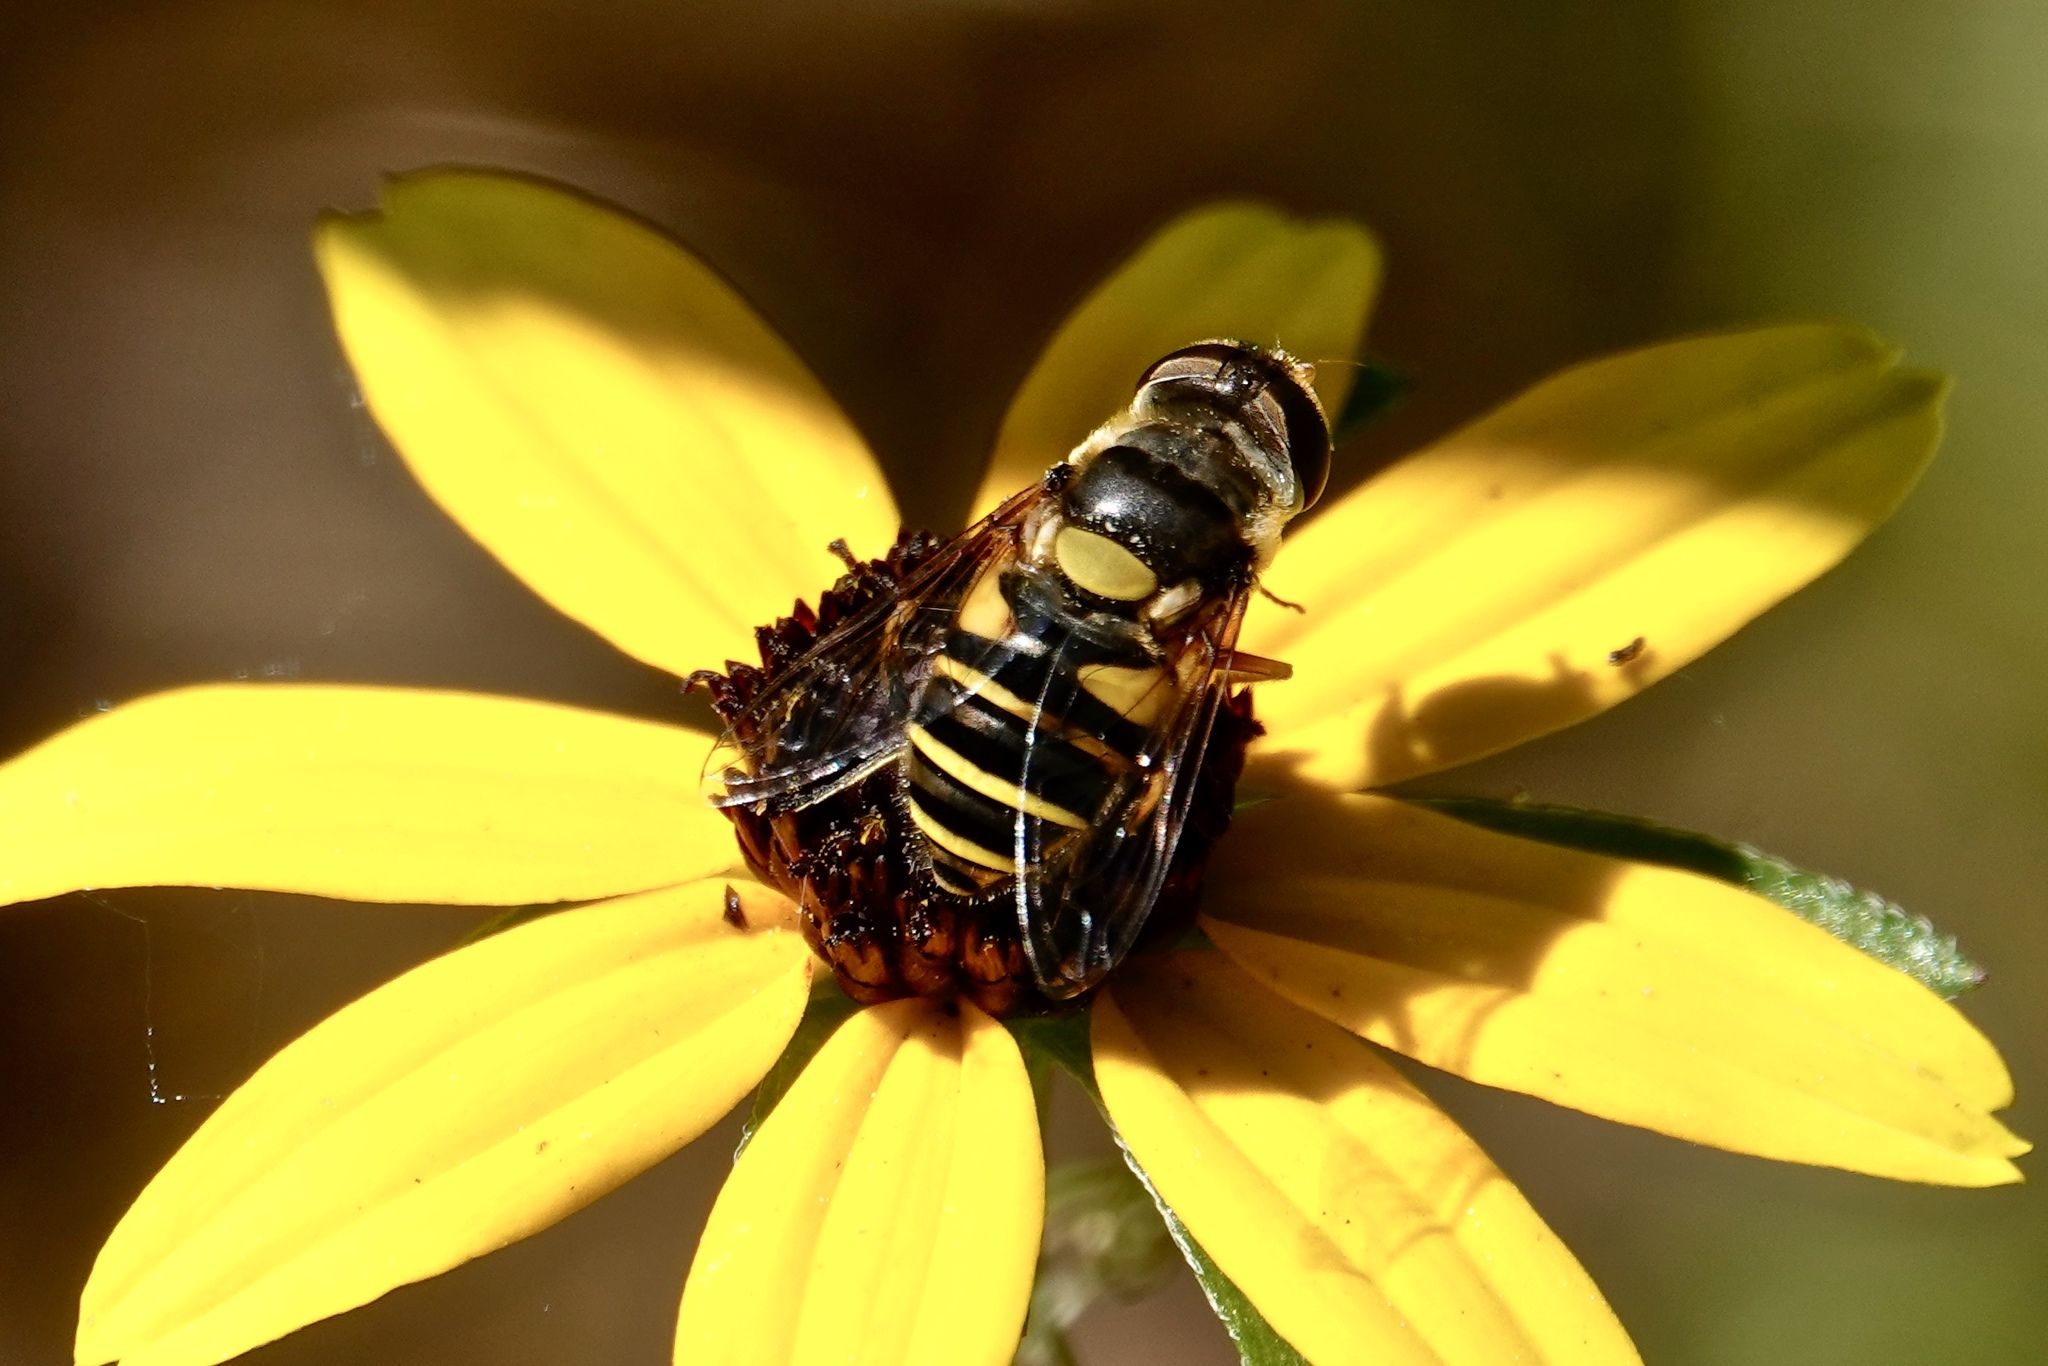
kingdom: Animalia
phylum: Arthropoda
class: Insecta
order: Diptera
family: Syrphidae
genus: Eristalis
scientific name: Eristalis transversa
